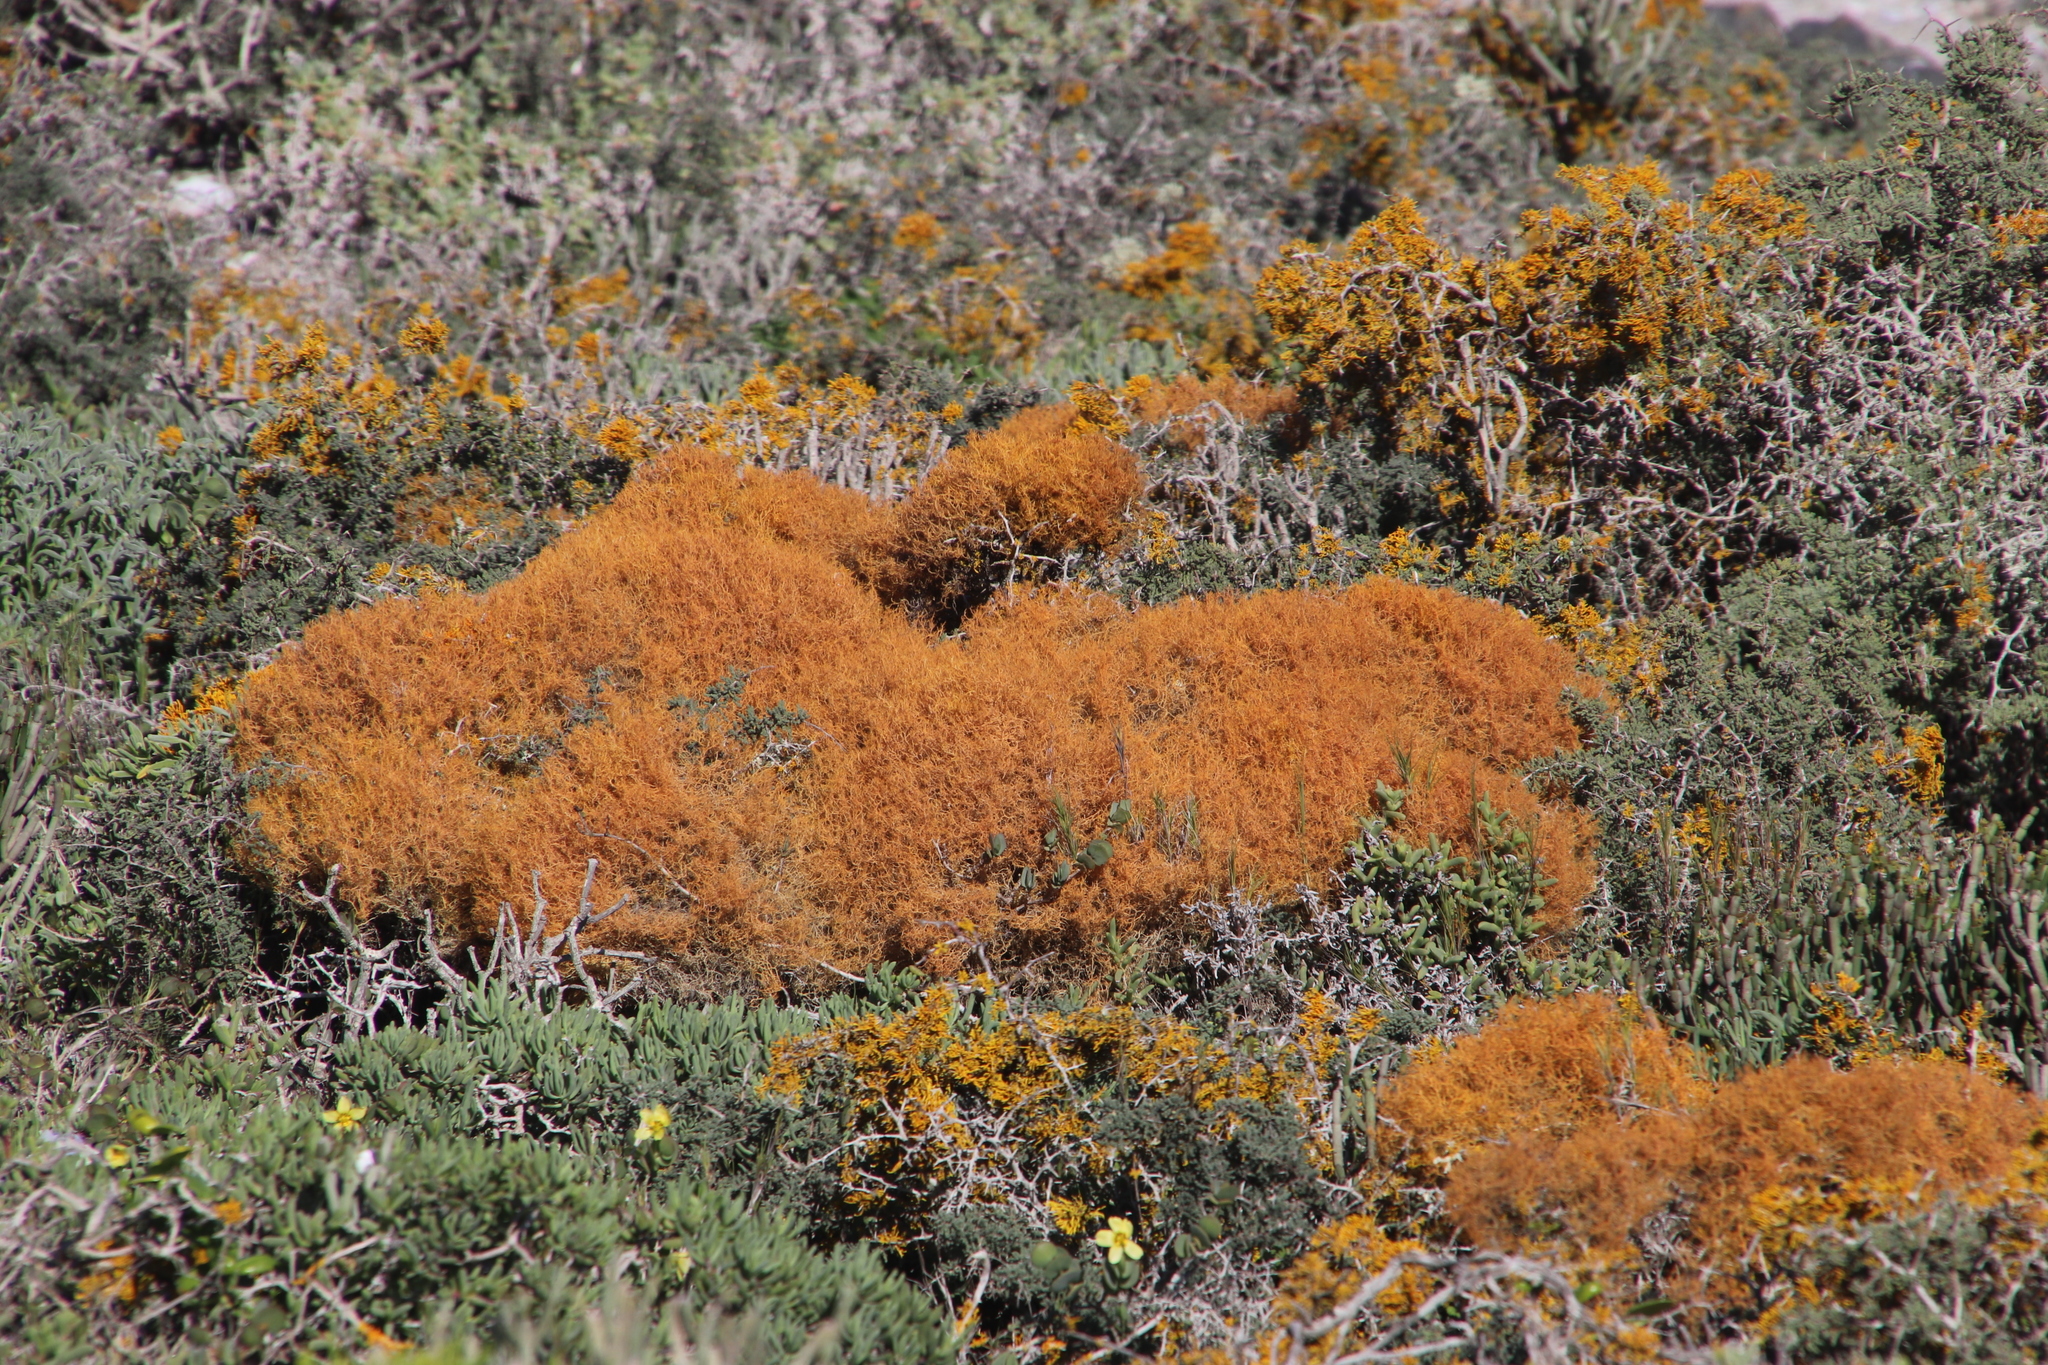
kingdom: Fungi
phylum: Ascomycota
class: Lecanoromycetes
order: Teloschistales
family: Teloschistaceae
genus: Teloschistes
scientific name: Teloschistes capensis
